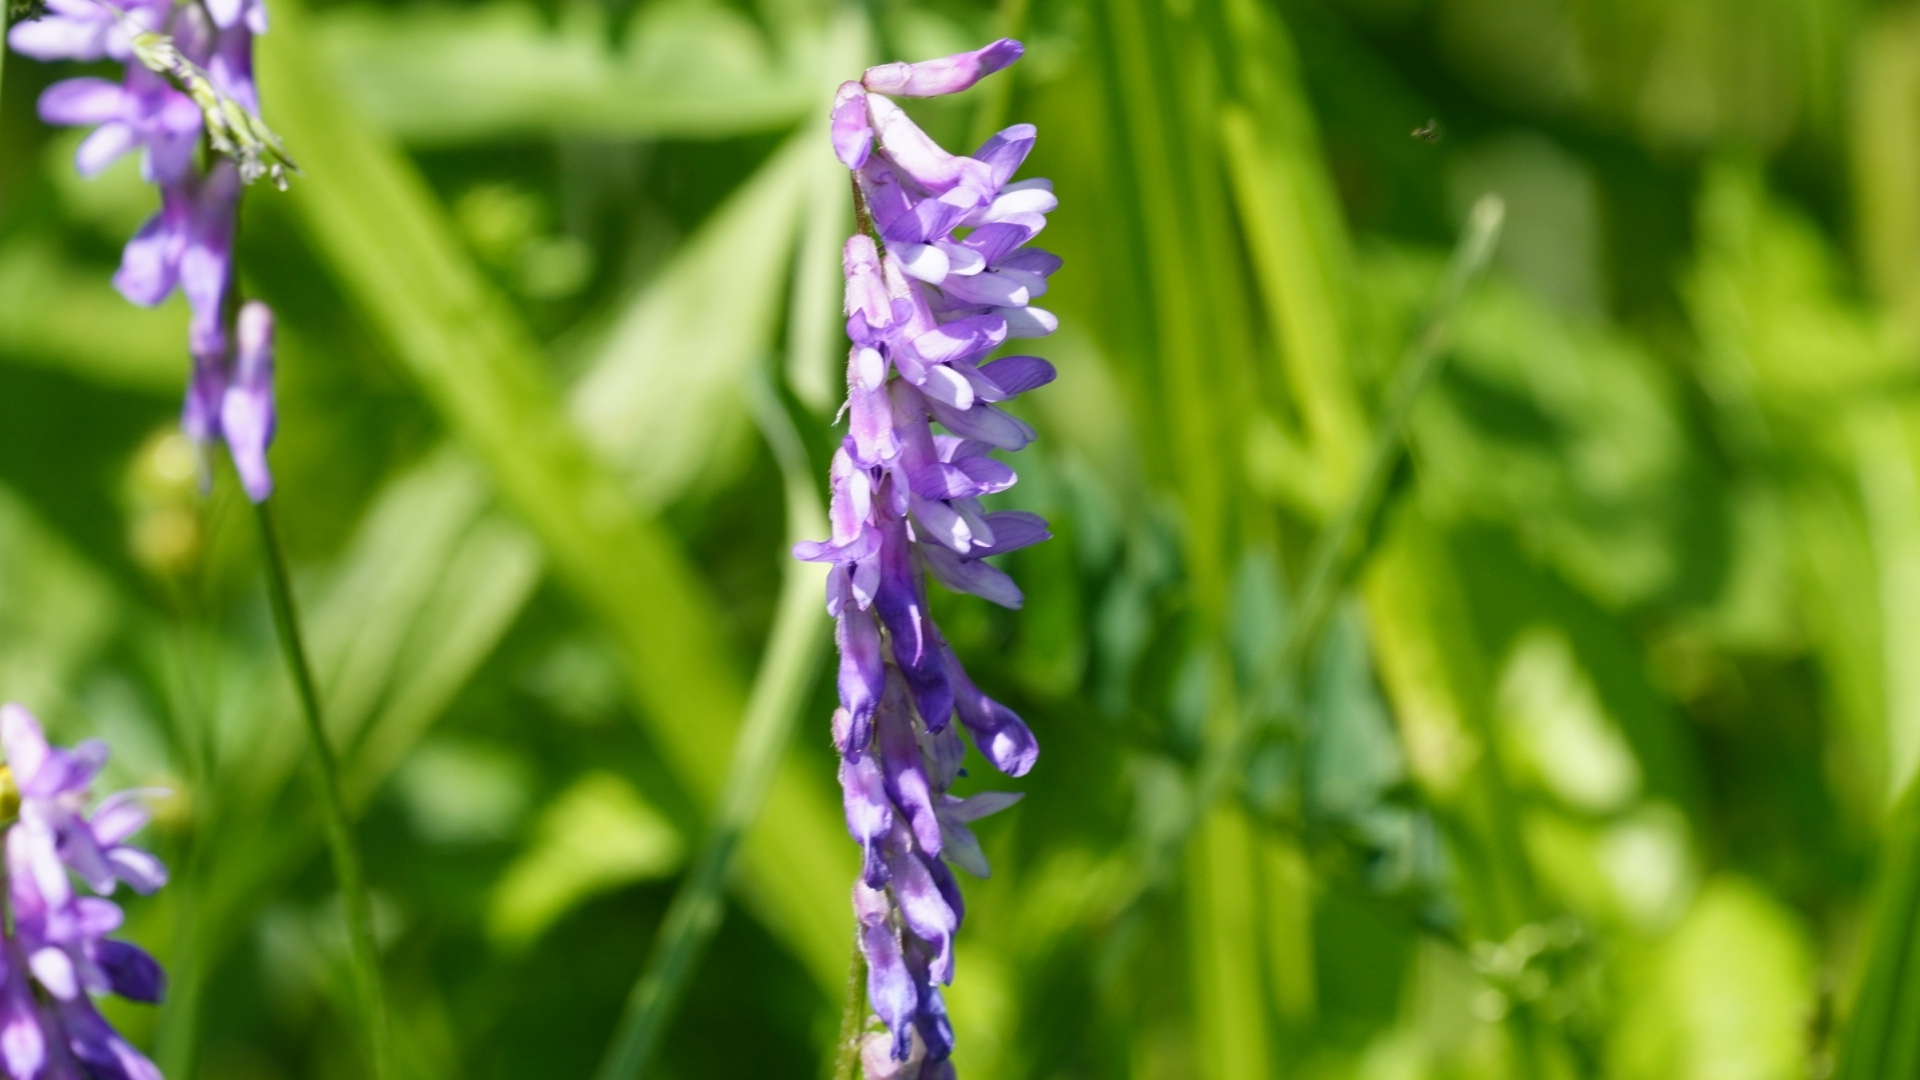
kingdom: Plantae
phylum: Tracheophyta
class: Magnoliopsida
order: Fabales
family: Fabaceae
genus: Vicia
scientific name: Vicia cracca
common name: Bird vetch
